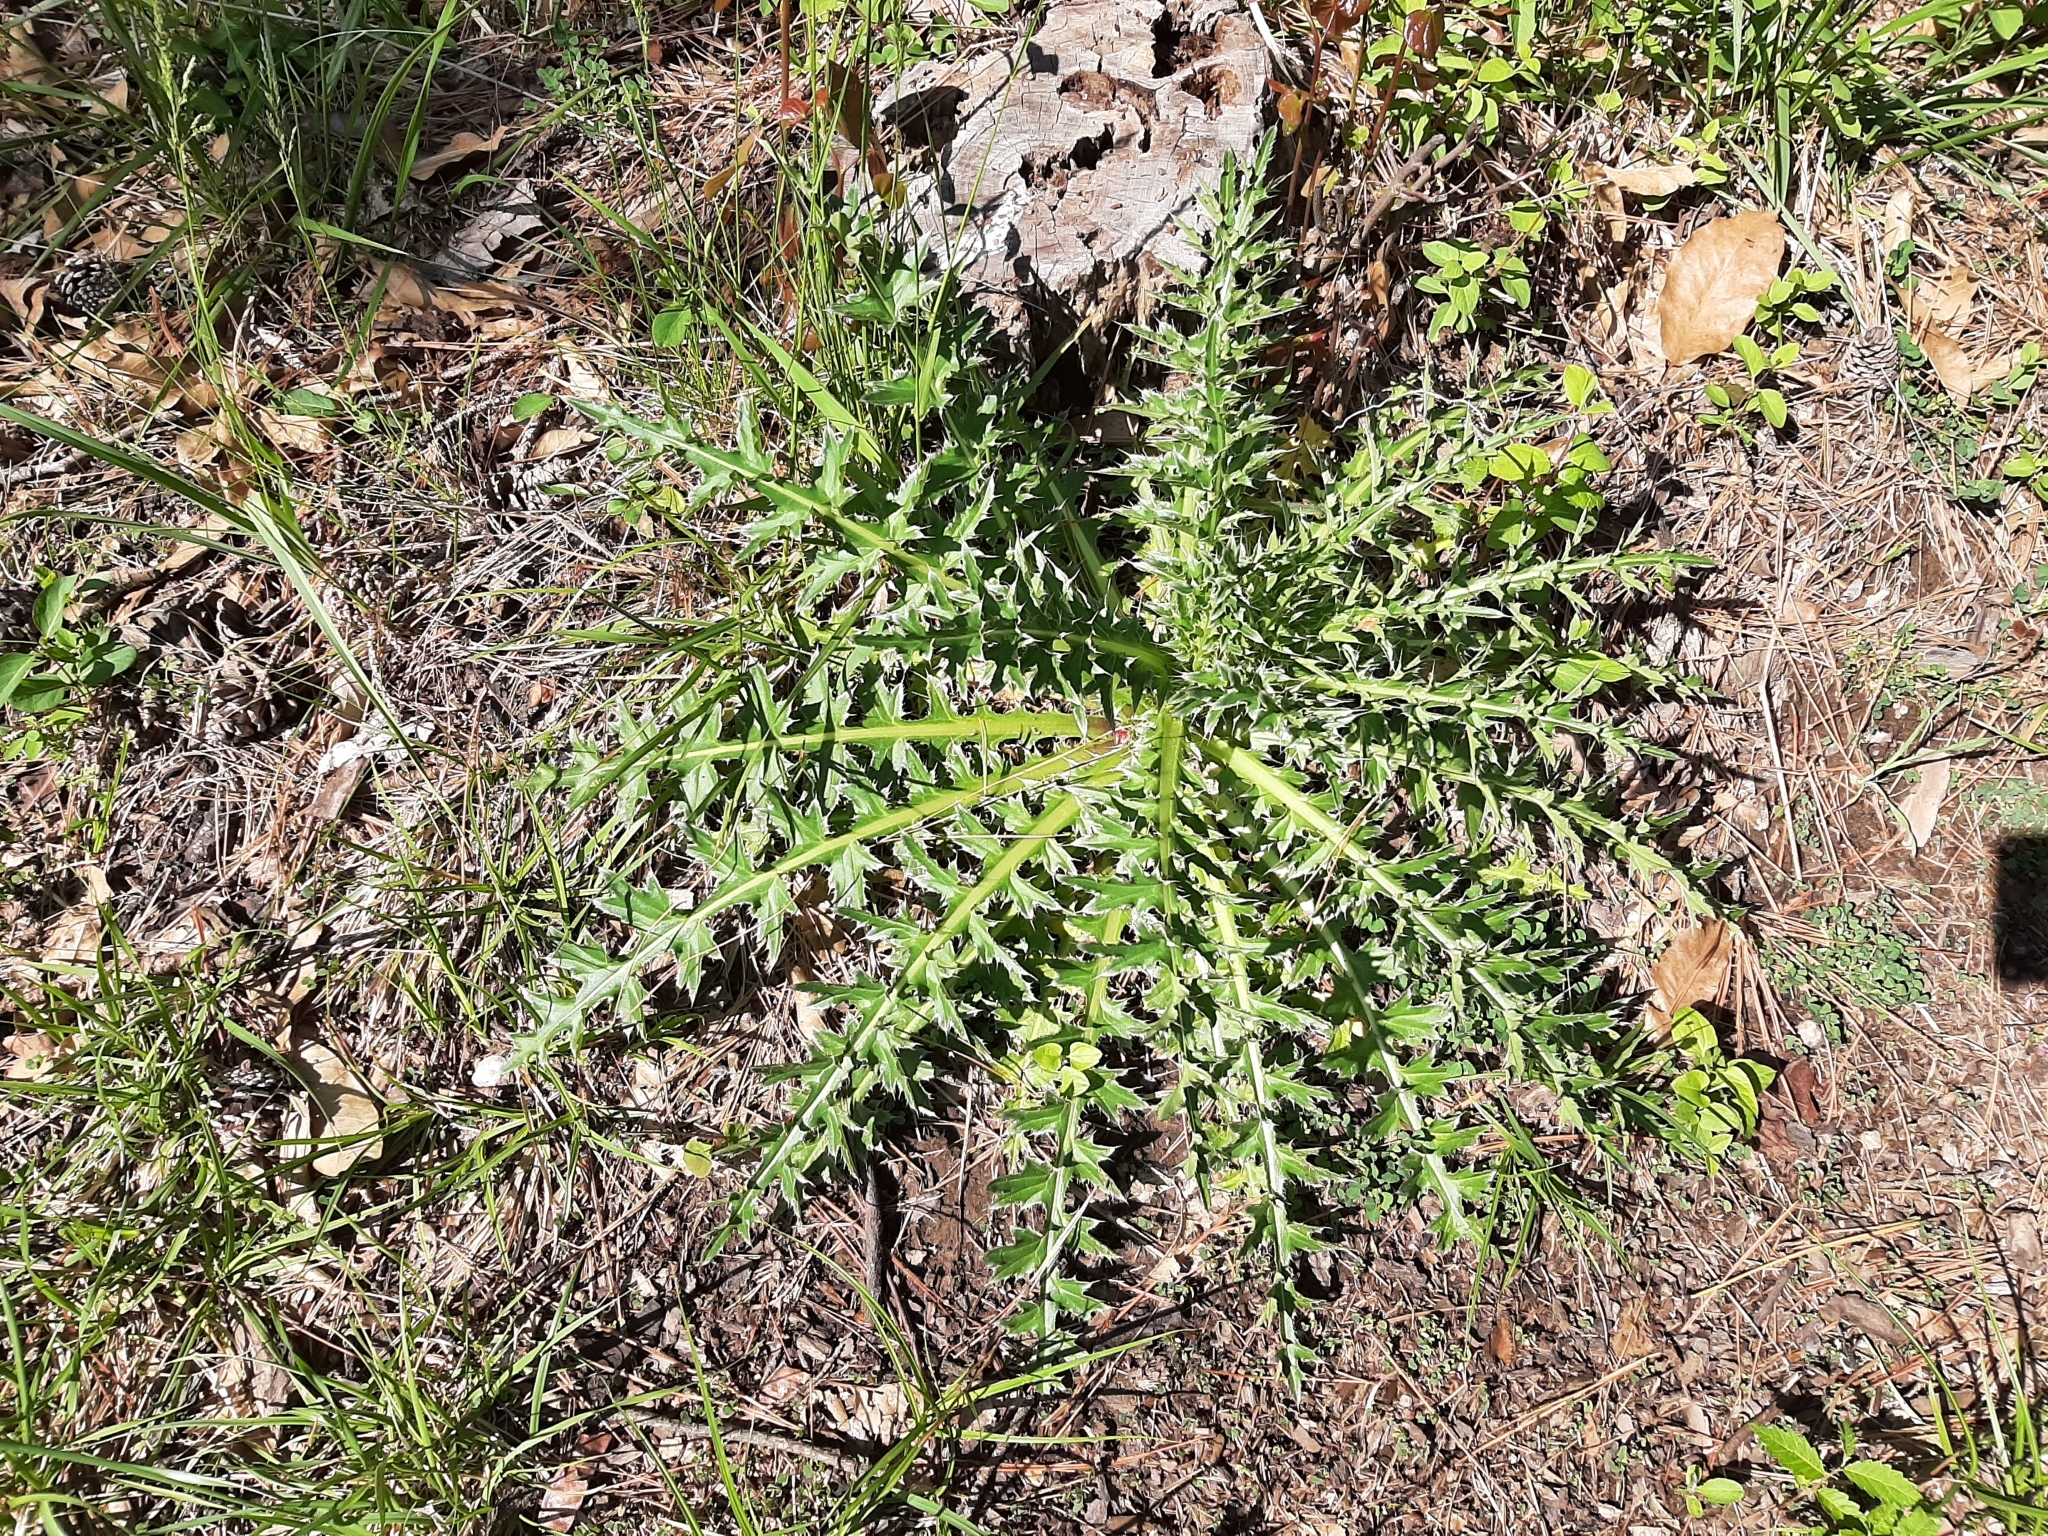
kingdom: Plantae
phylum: Tracheophyta
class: Magnoliopsida
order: Asterales
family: Asteraceae
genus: Carduus
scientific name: Carduus nutans
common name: Musk thistle
